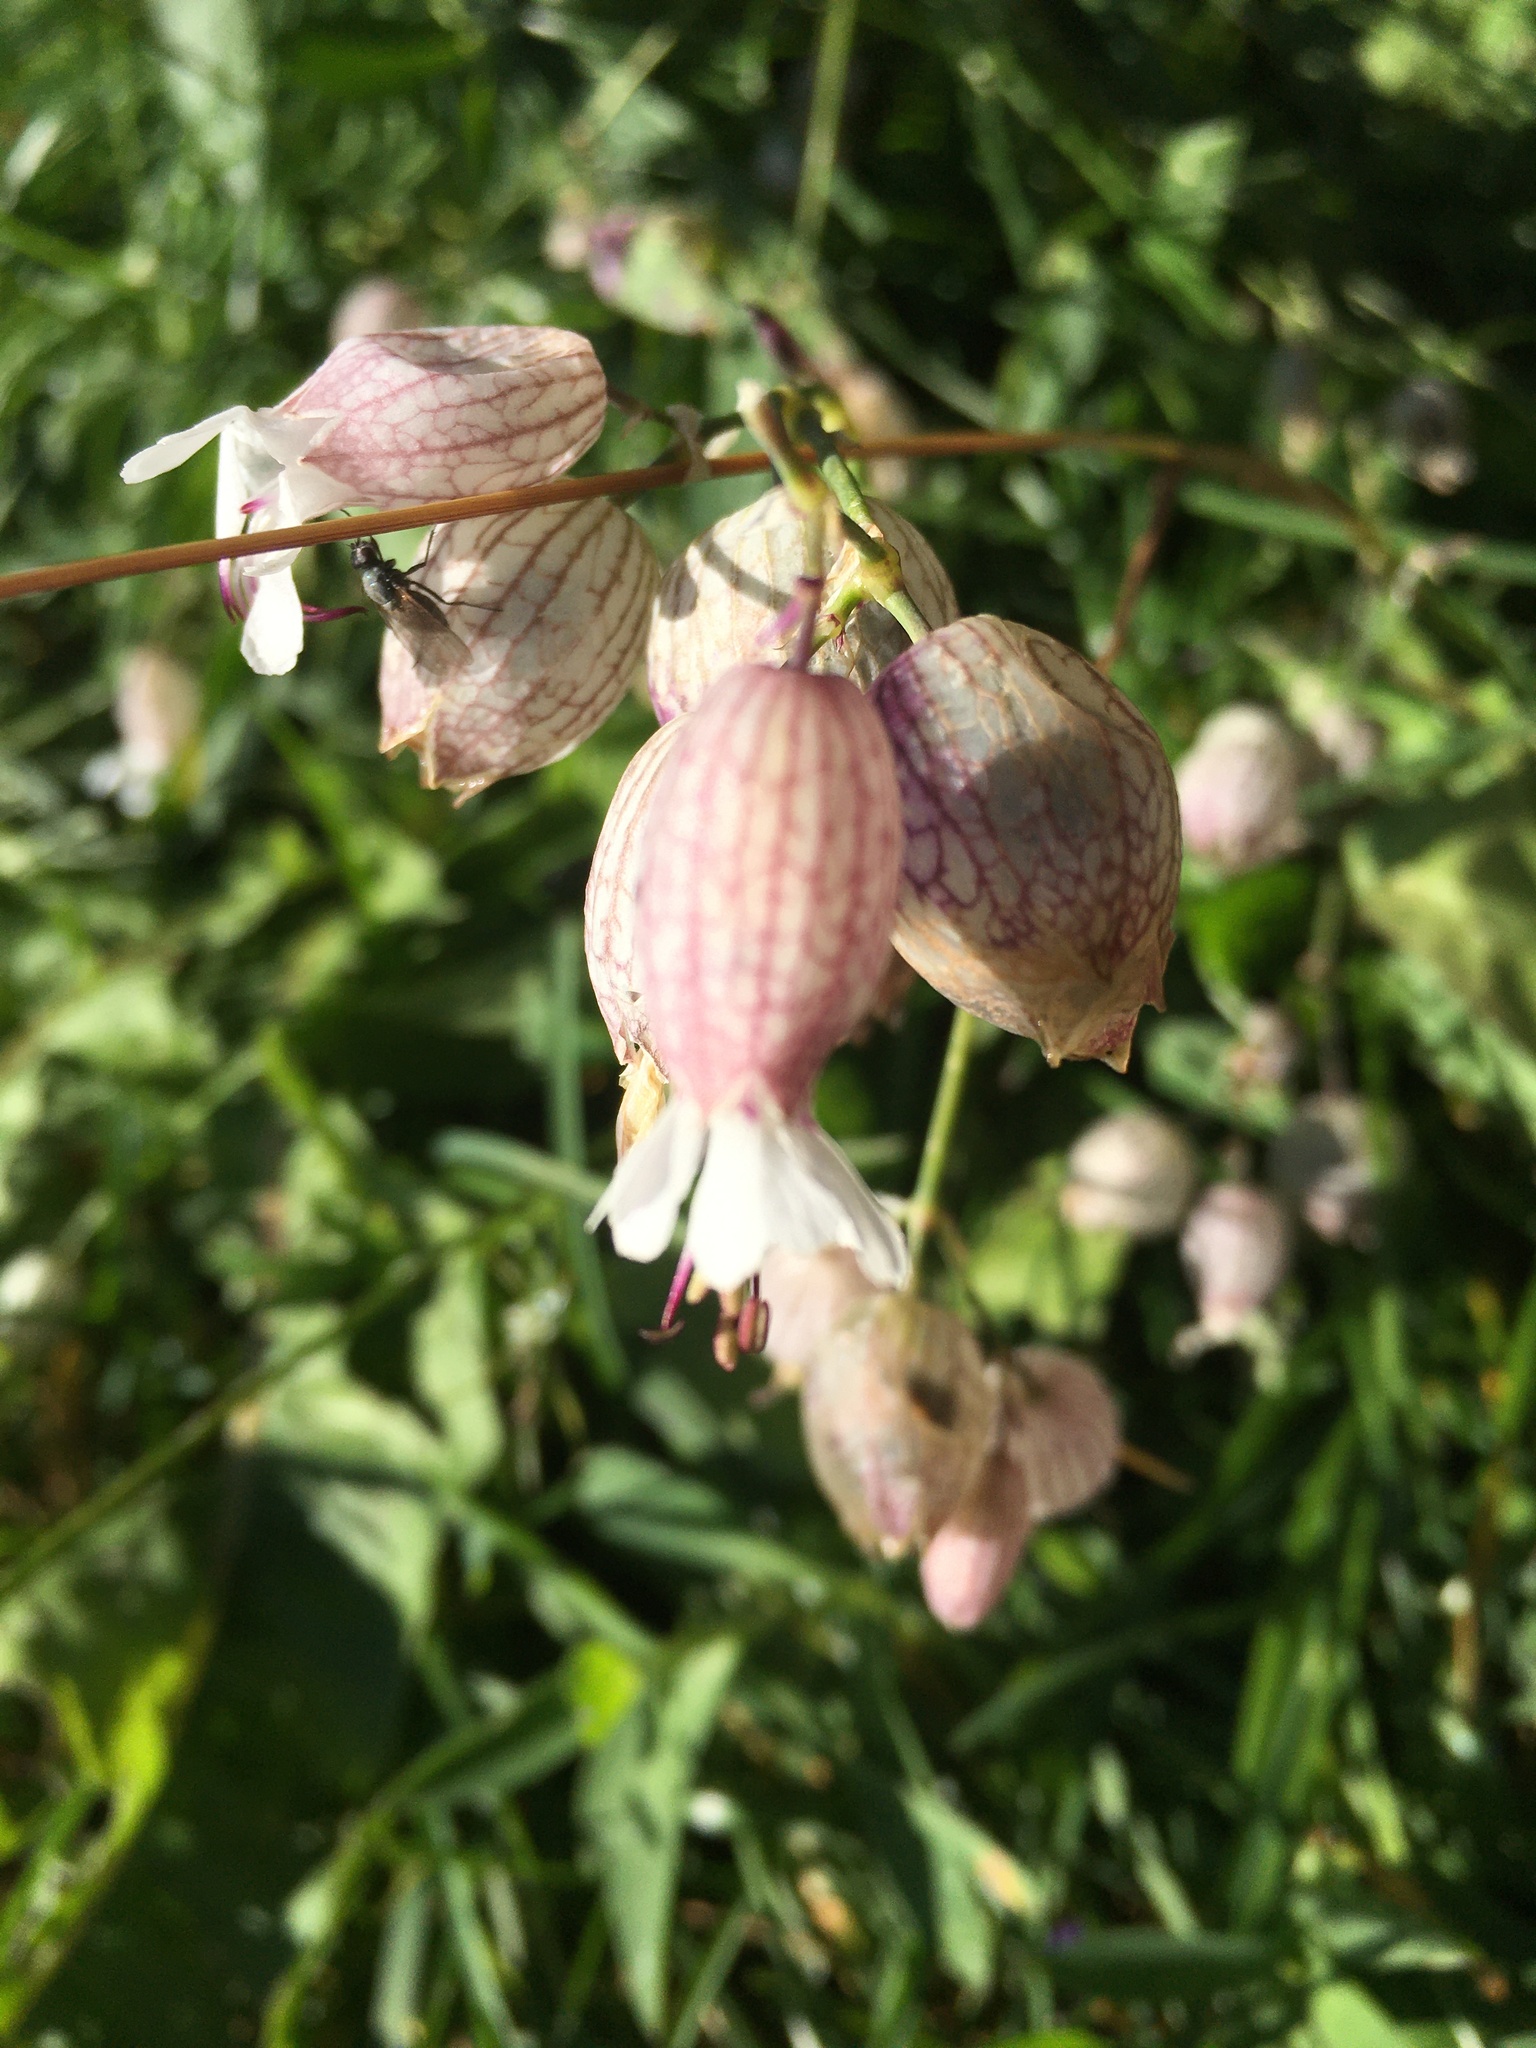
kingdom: Plantae
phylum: Tracheophyta
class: Magnoliopsida
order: Caryophyllales
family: Caryophyllaceae
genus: Silene
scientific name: Silene vulgaris
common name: Bladder campion
